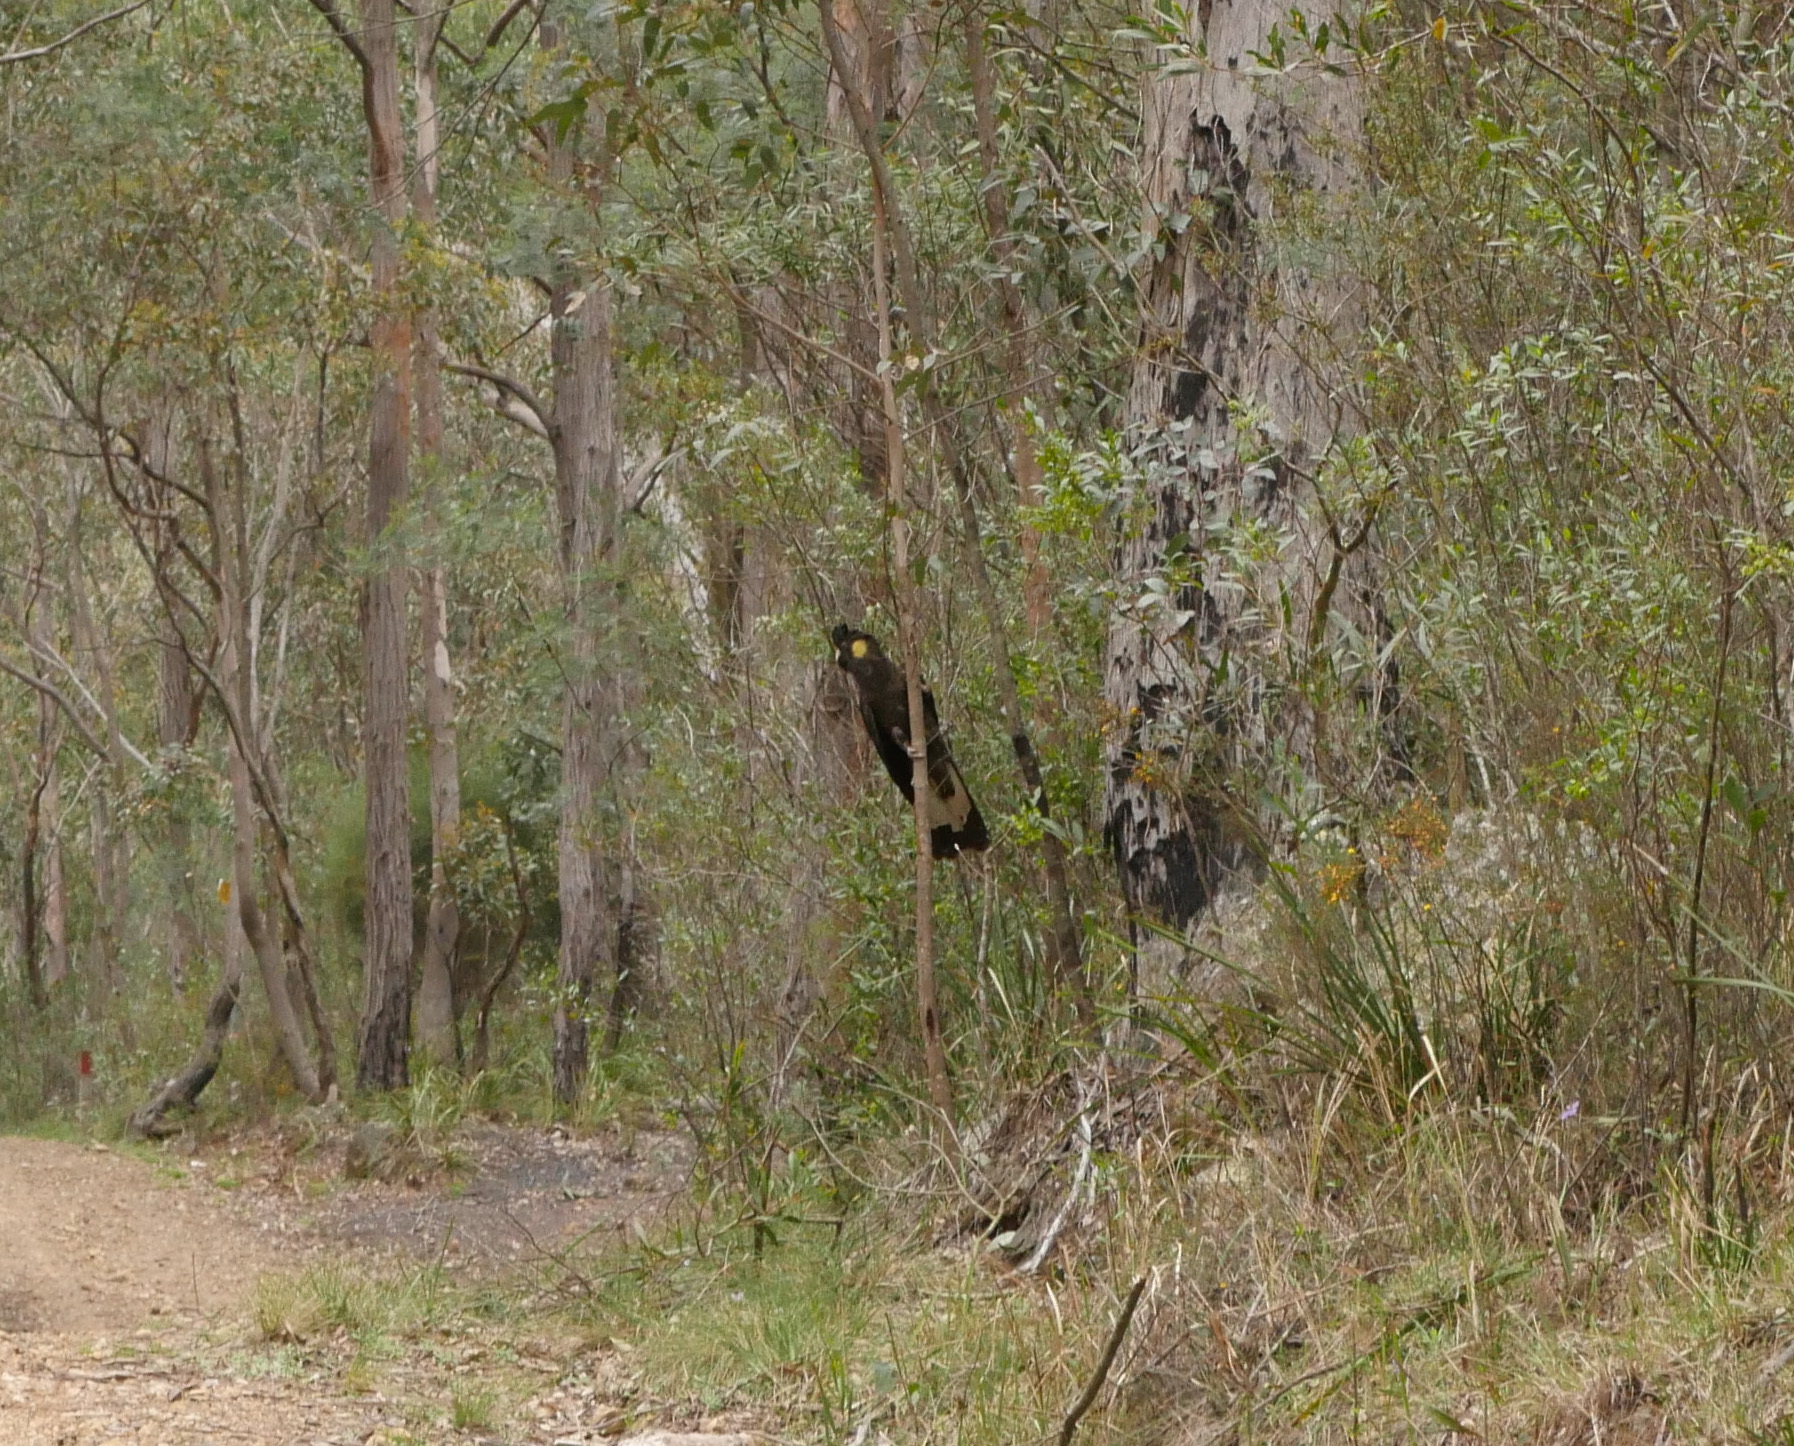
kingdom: Animalia
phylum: Chordata
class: Aves
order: Psittaciformes
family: Cacatuidae
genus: Zanda
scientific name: Zanda funerea
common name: Yellow-tailed black-cockatoo
